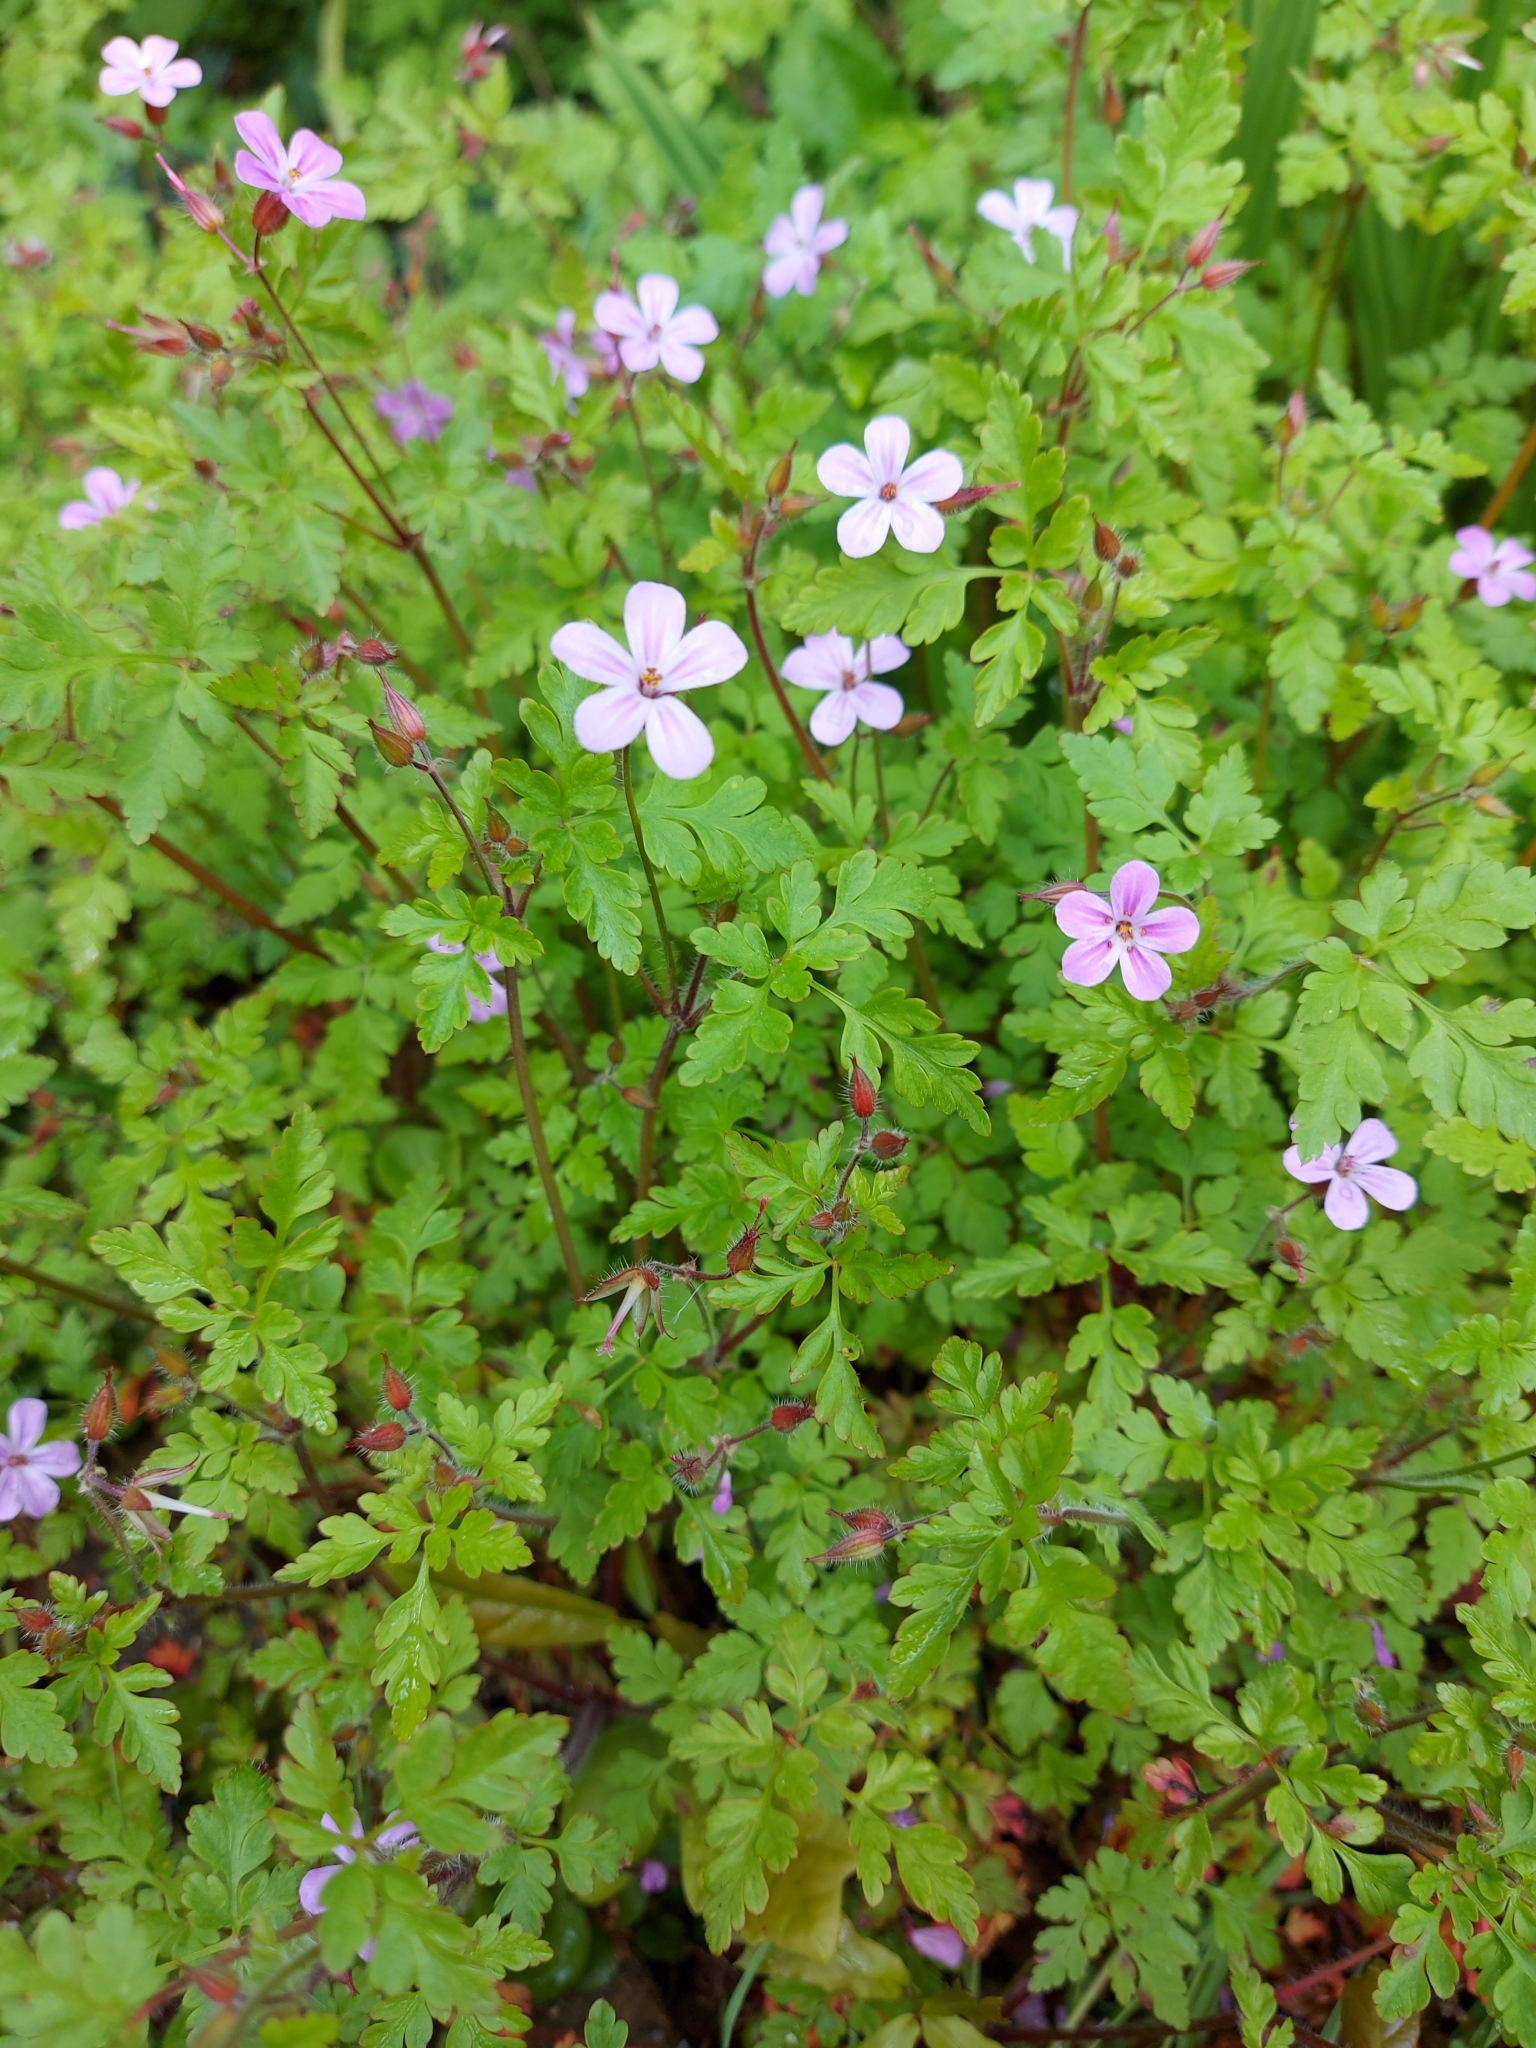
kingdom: Plantae
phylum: Tracheophyta
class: Magnoliopsida
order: Geraniales
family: Geraniaceae
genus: Geranium
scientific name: Geranium robertianum
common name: Herb-robert
